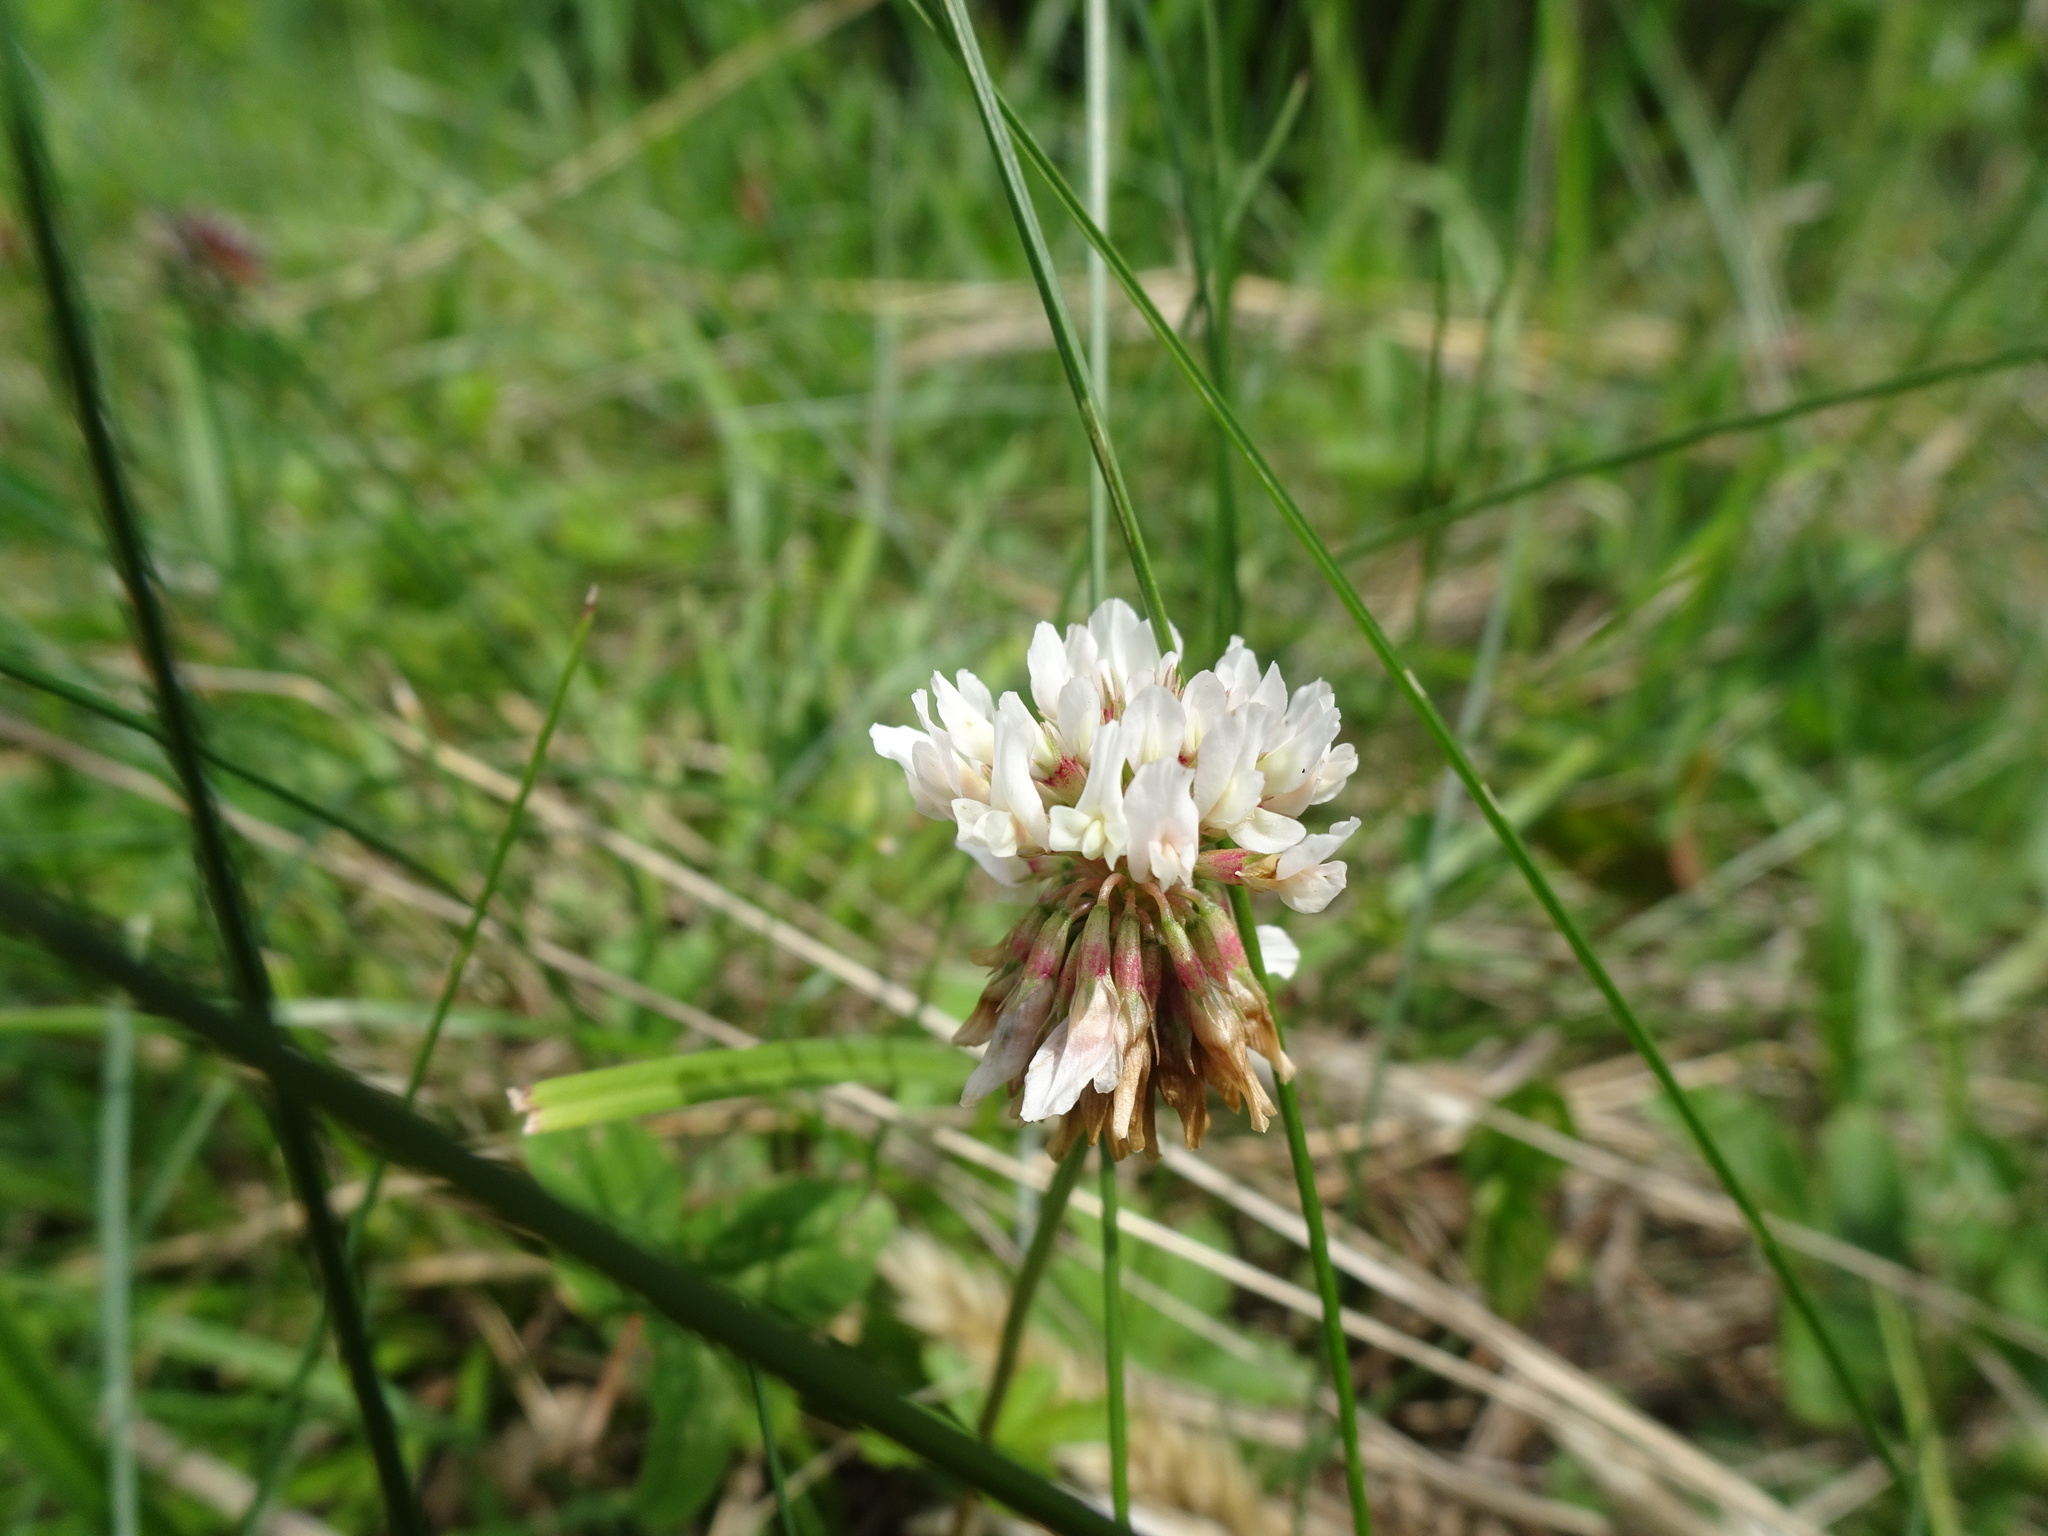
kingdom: Plantae
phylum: Tracheophyta
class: Magnoliopsida
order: Fabales
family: Fabaceae
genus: Trifolium
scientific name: Trifolium repens
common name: White clover
